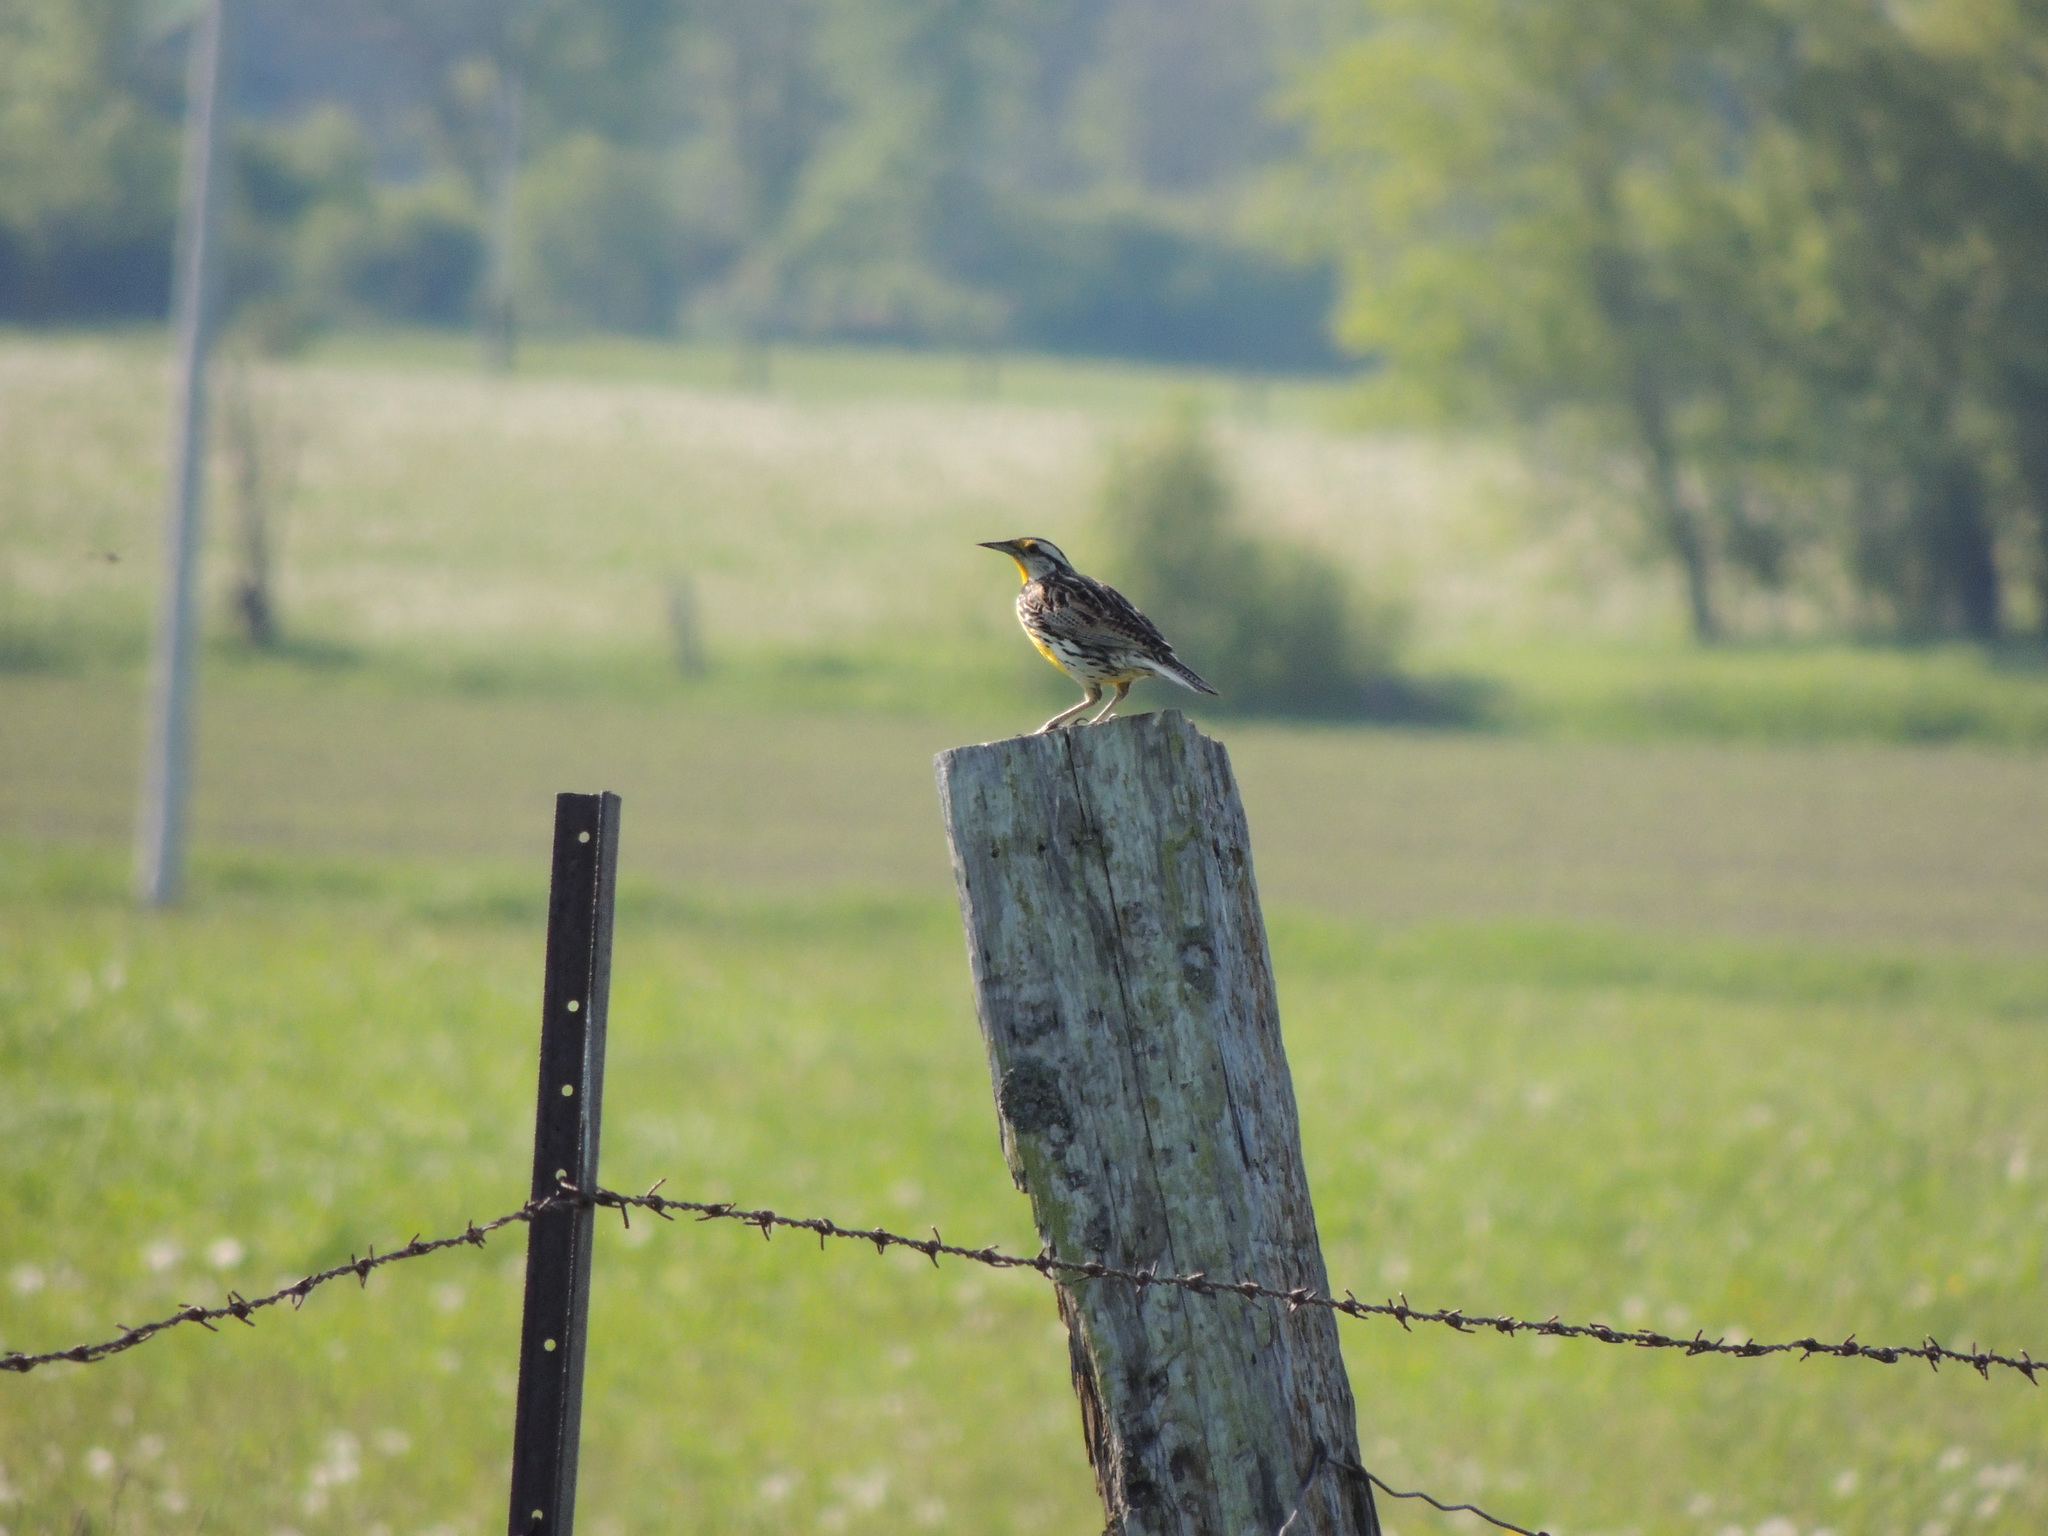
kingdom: Animalia
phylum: Chordata
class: Aves
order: Passeriformes
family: Icteridae
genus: Sturnella
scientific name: Sturnella magna
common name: Eastern meadowlark
